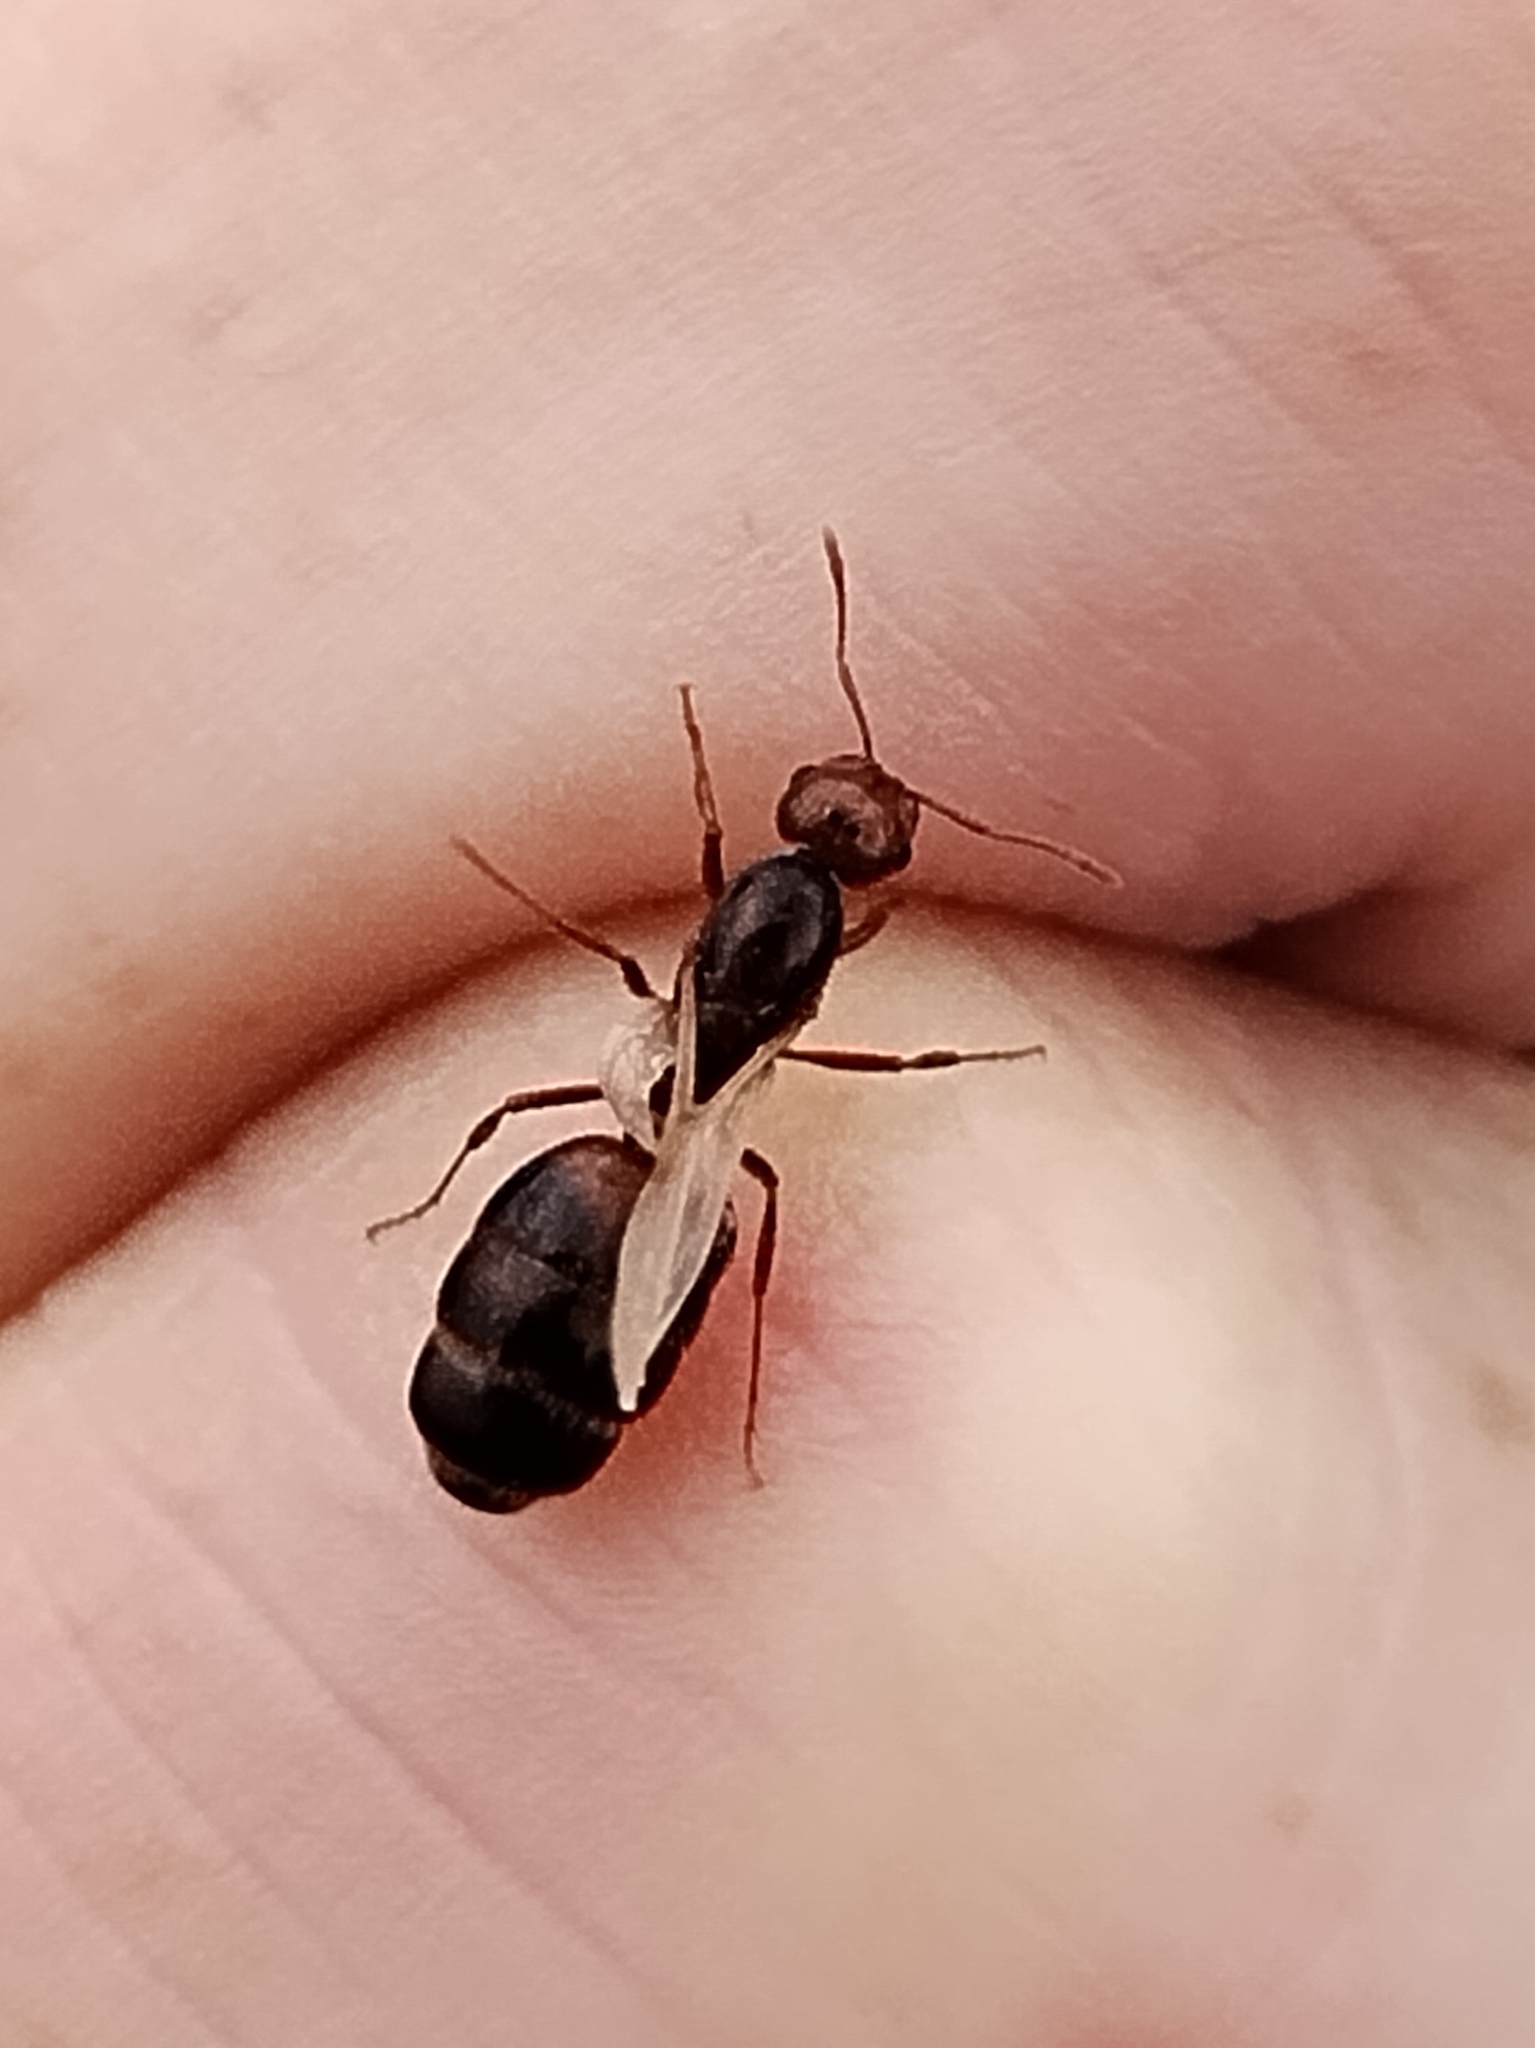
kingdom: Animalia
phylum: Arthropoda
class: Insecta
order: Hymenoptera
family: Formicidae
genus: Solenopsis
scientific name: Solenopsis invicta
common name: Red imported fire ant
